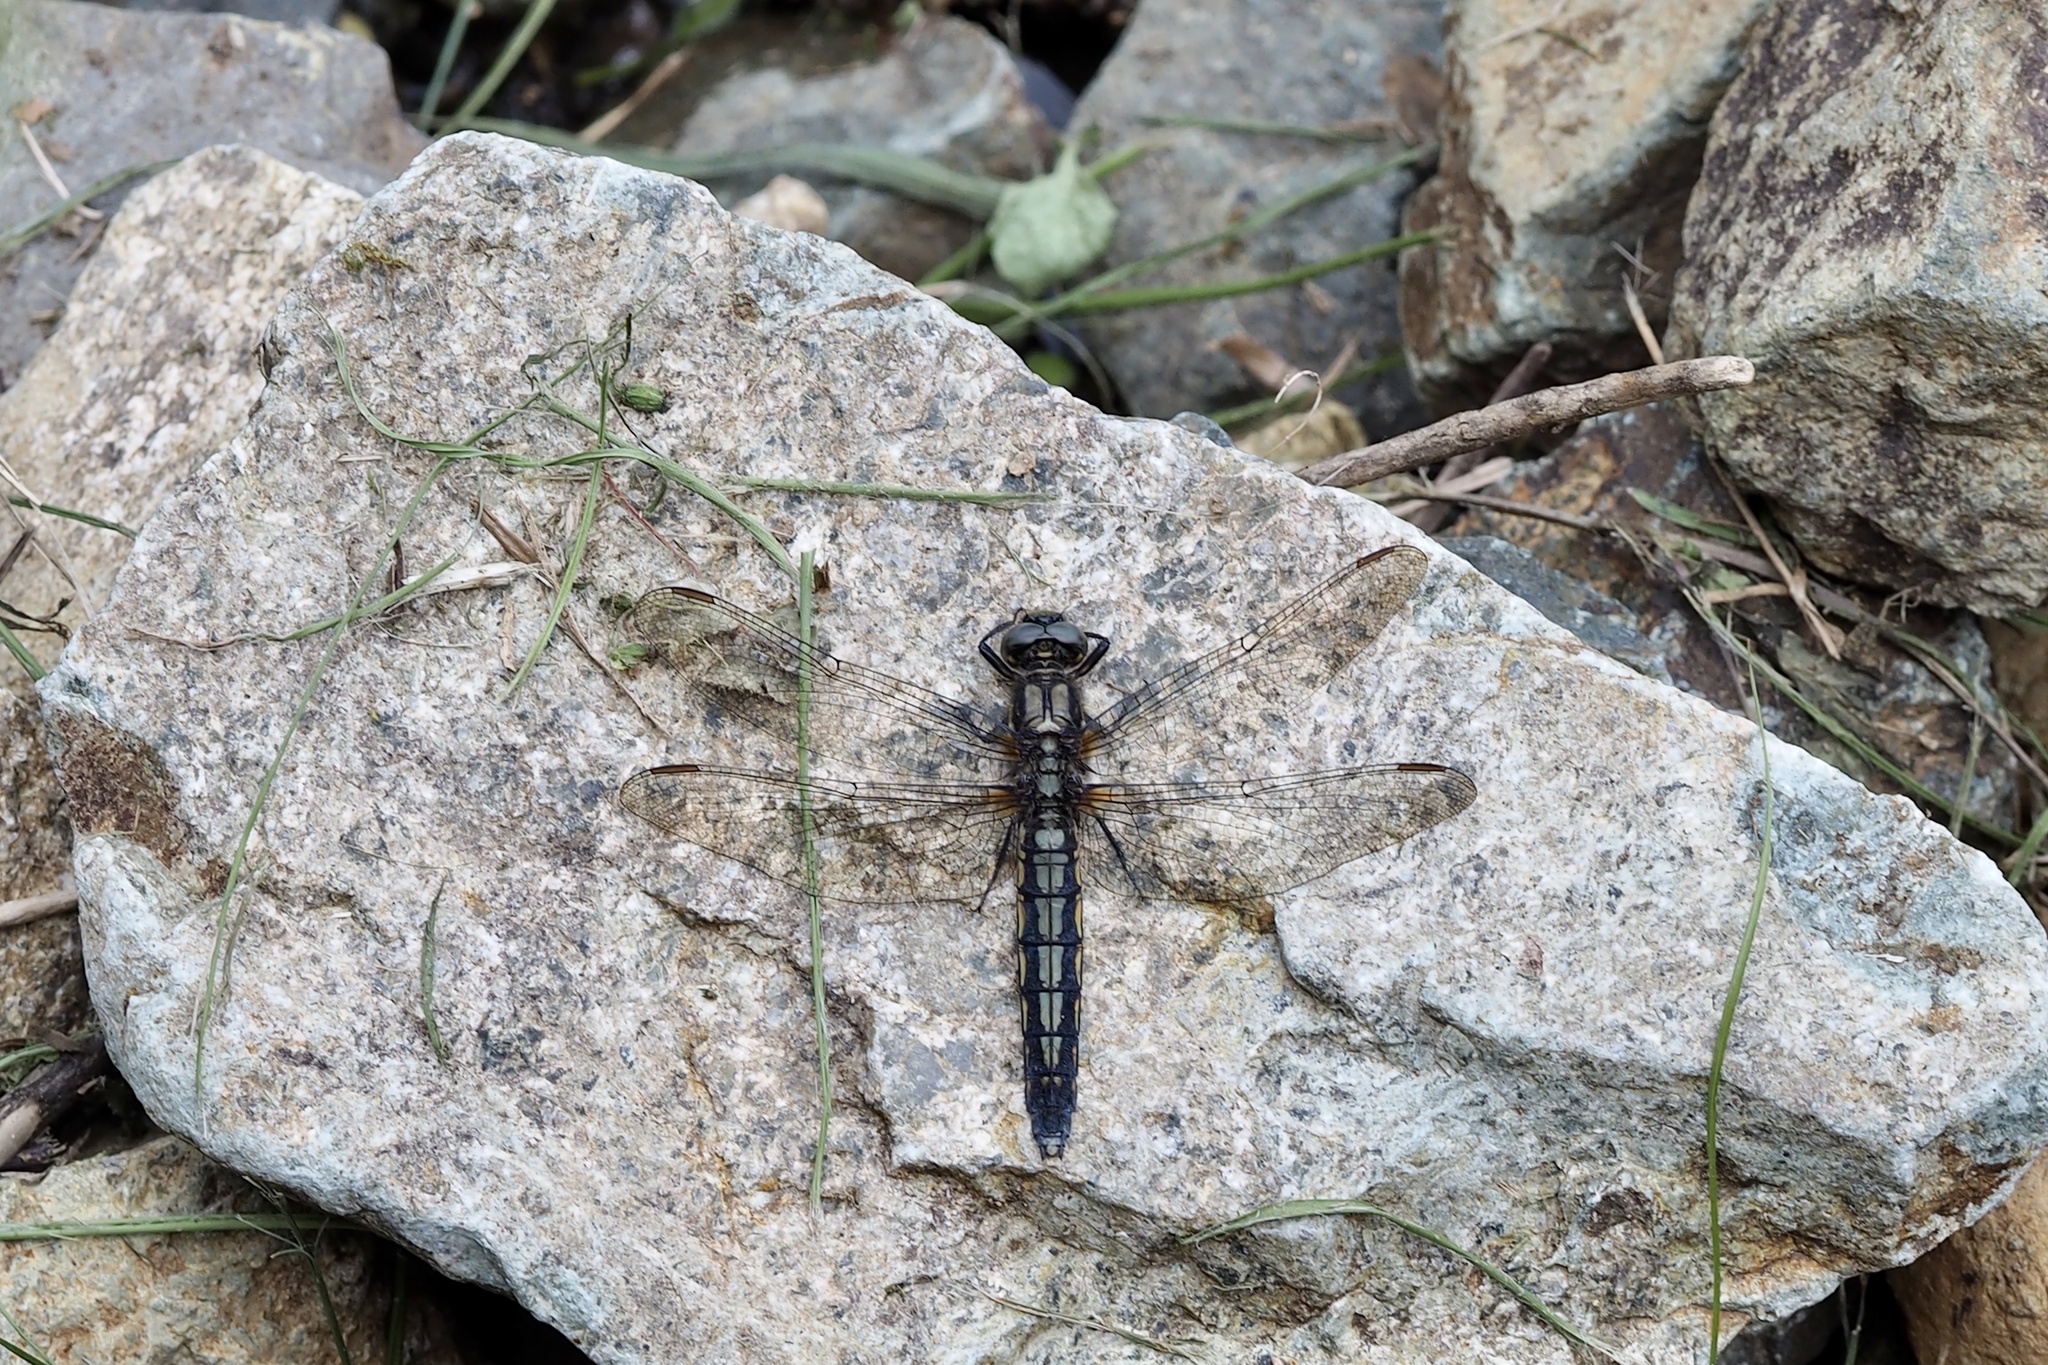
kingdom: Animalia
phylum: Arthropoda
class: Insecta
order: Odonata
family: Libellulidae
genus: Orthetrum
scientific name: Orthetrum japonicum
